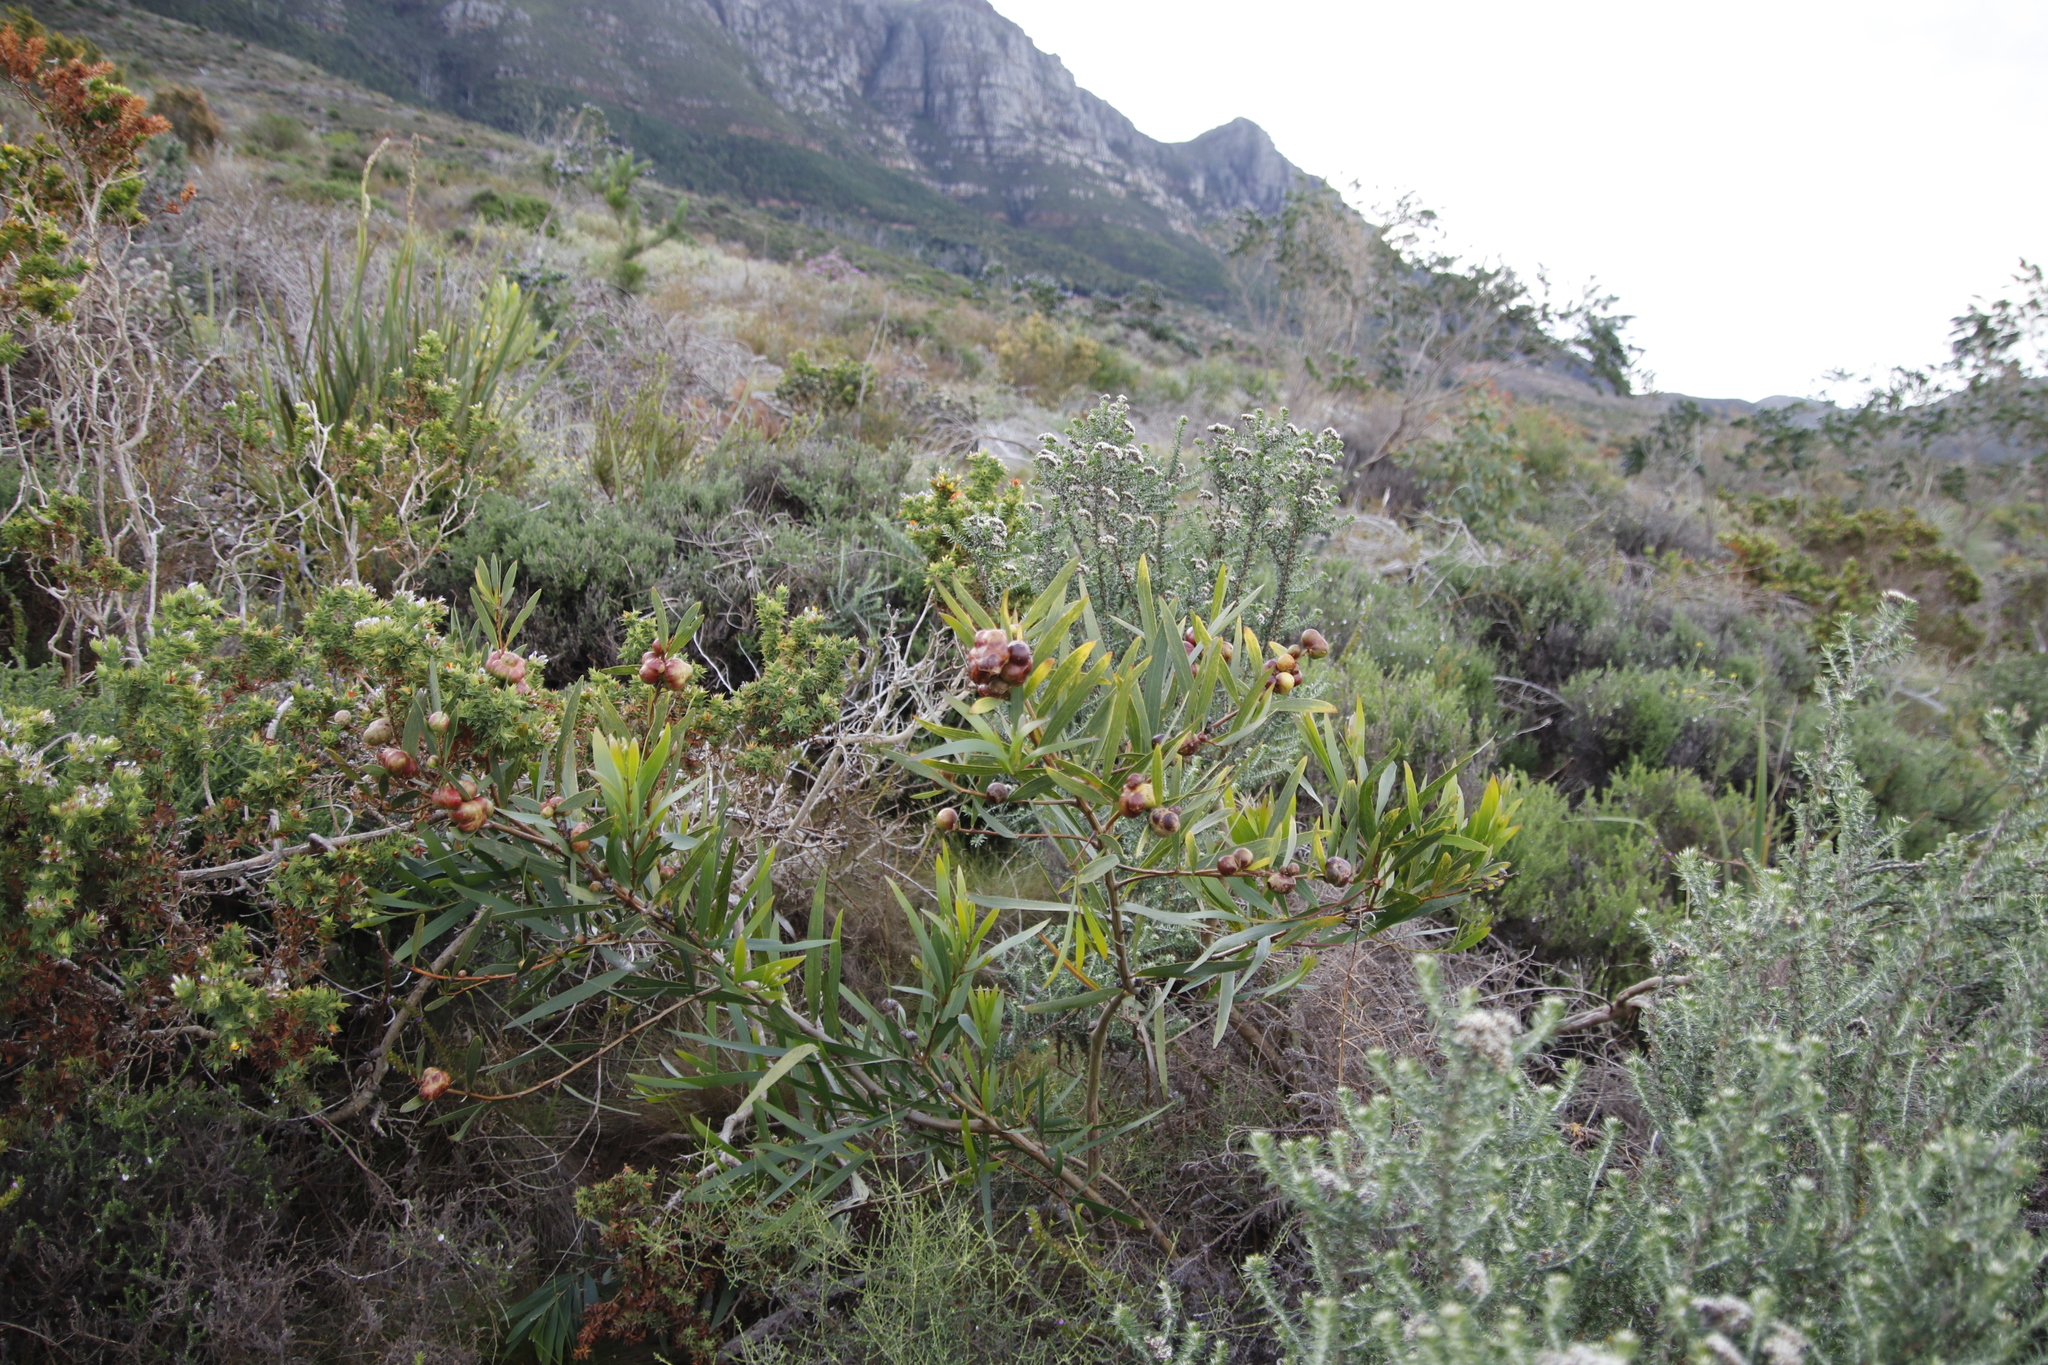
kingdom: Plantae
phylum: Tracheophyta
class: Magnoliopsida
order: Fabales
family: Fabaceae
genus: Acacia
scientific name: Acacia longifolia
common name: Sydney golden wattle
